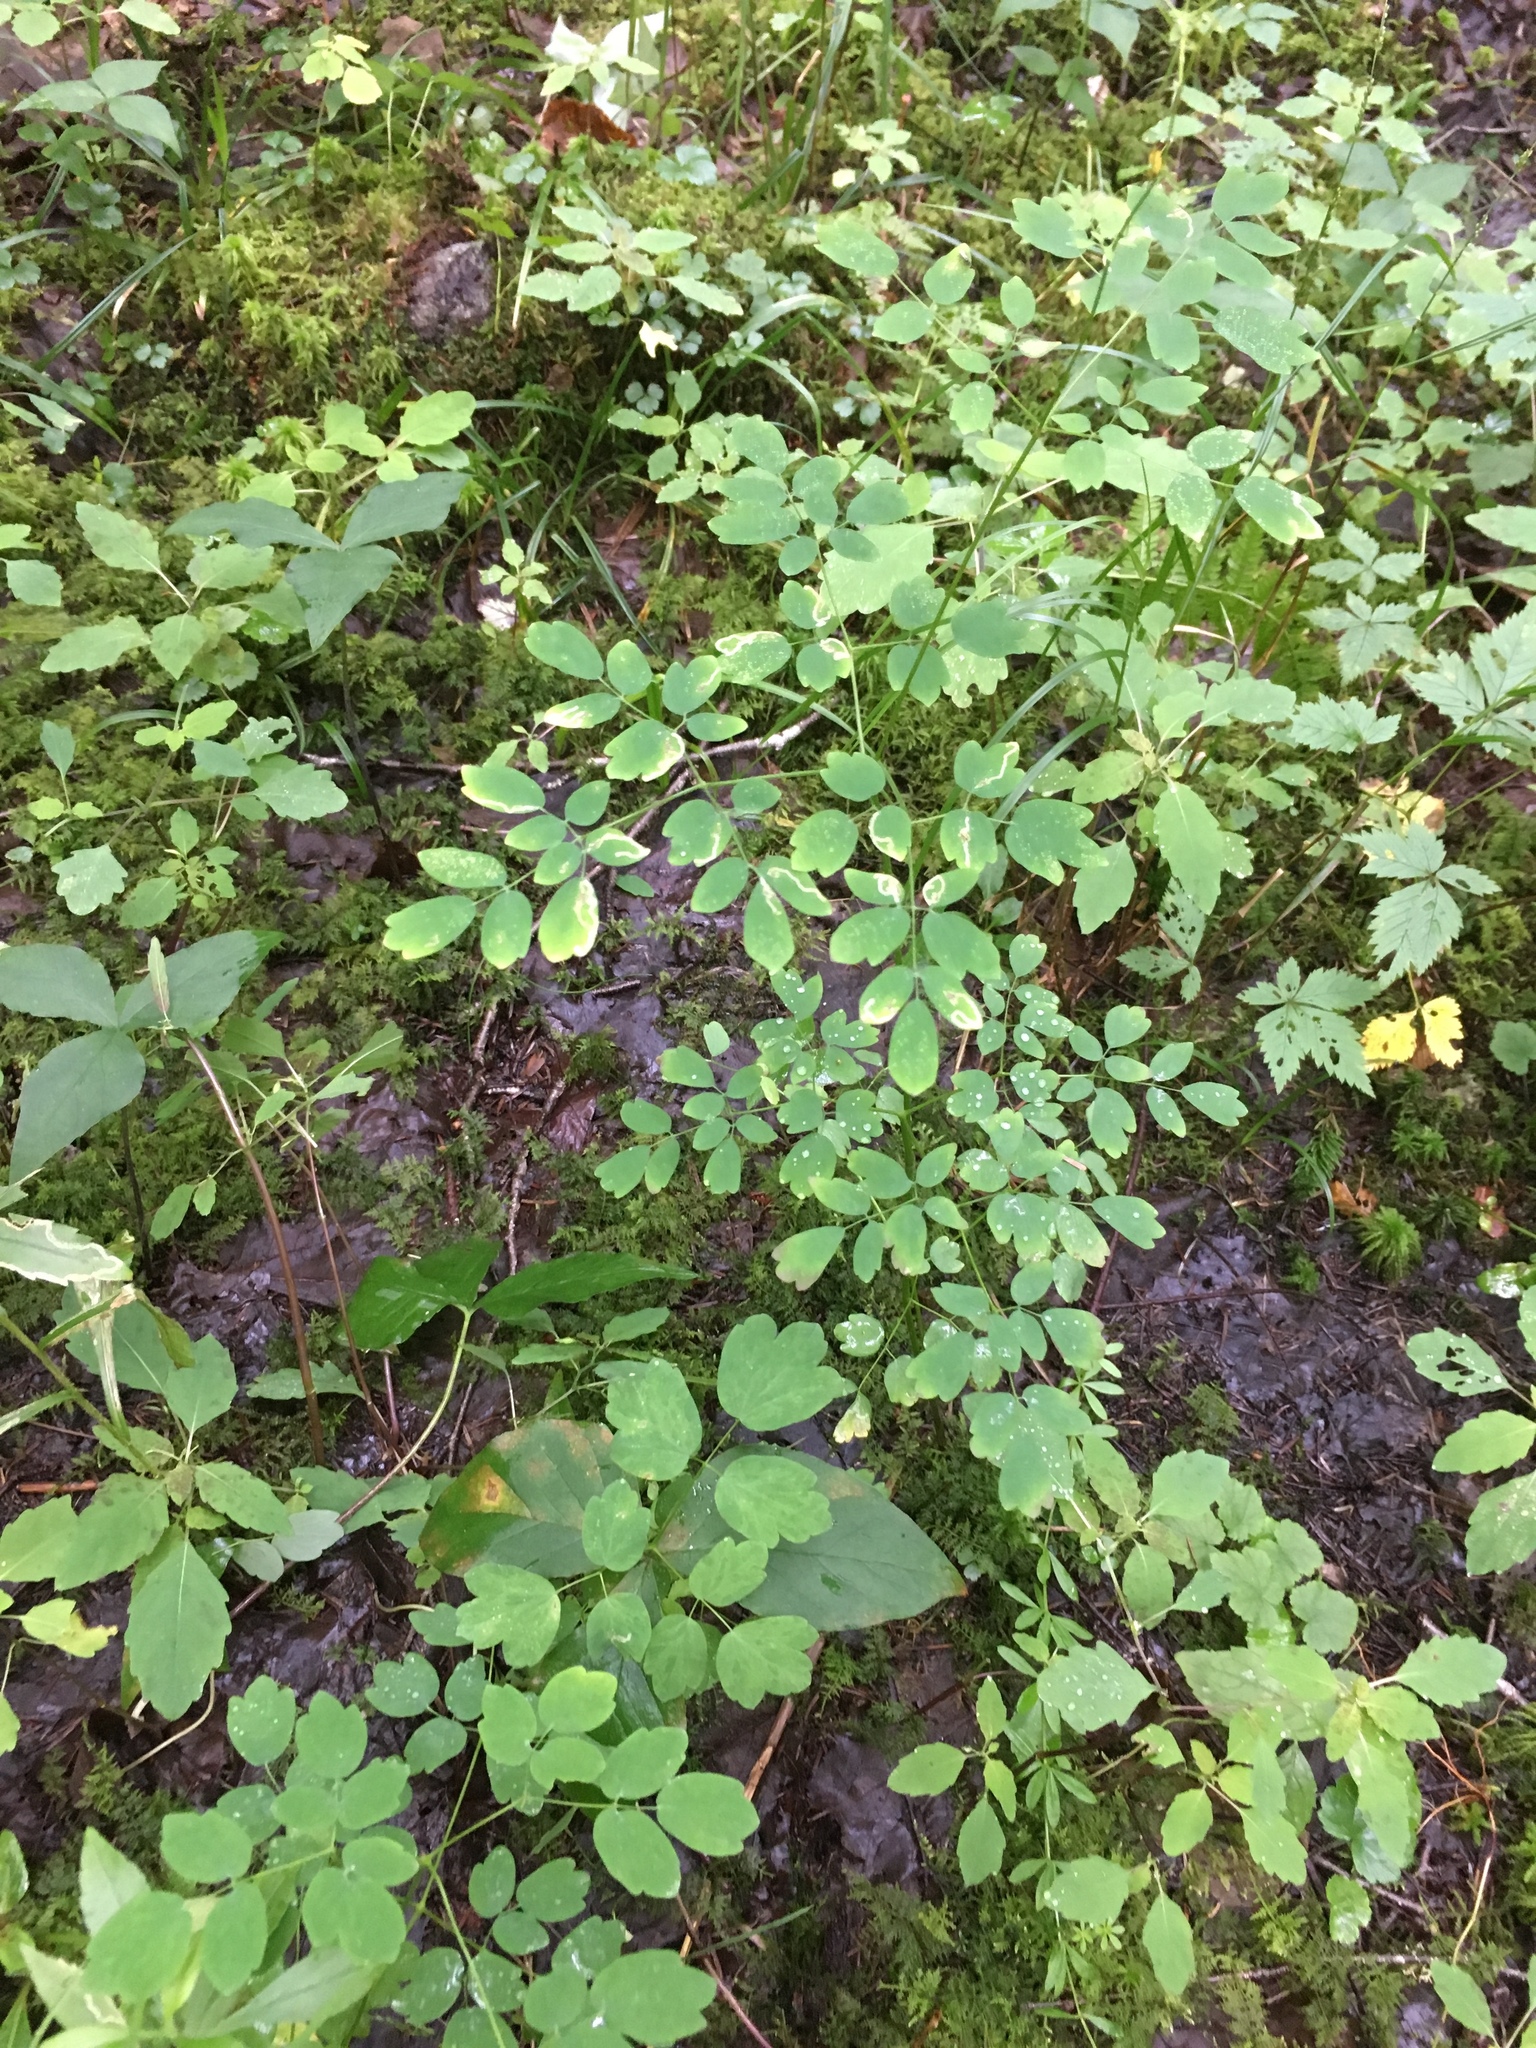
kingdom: Plantae
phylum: Tracheophyta
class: Magnoliopsida
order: Ranunculales
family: Ranunculaceae
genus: Thalictrum
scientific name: Thalictrum pubescens
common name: King-of-the-meadow
